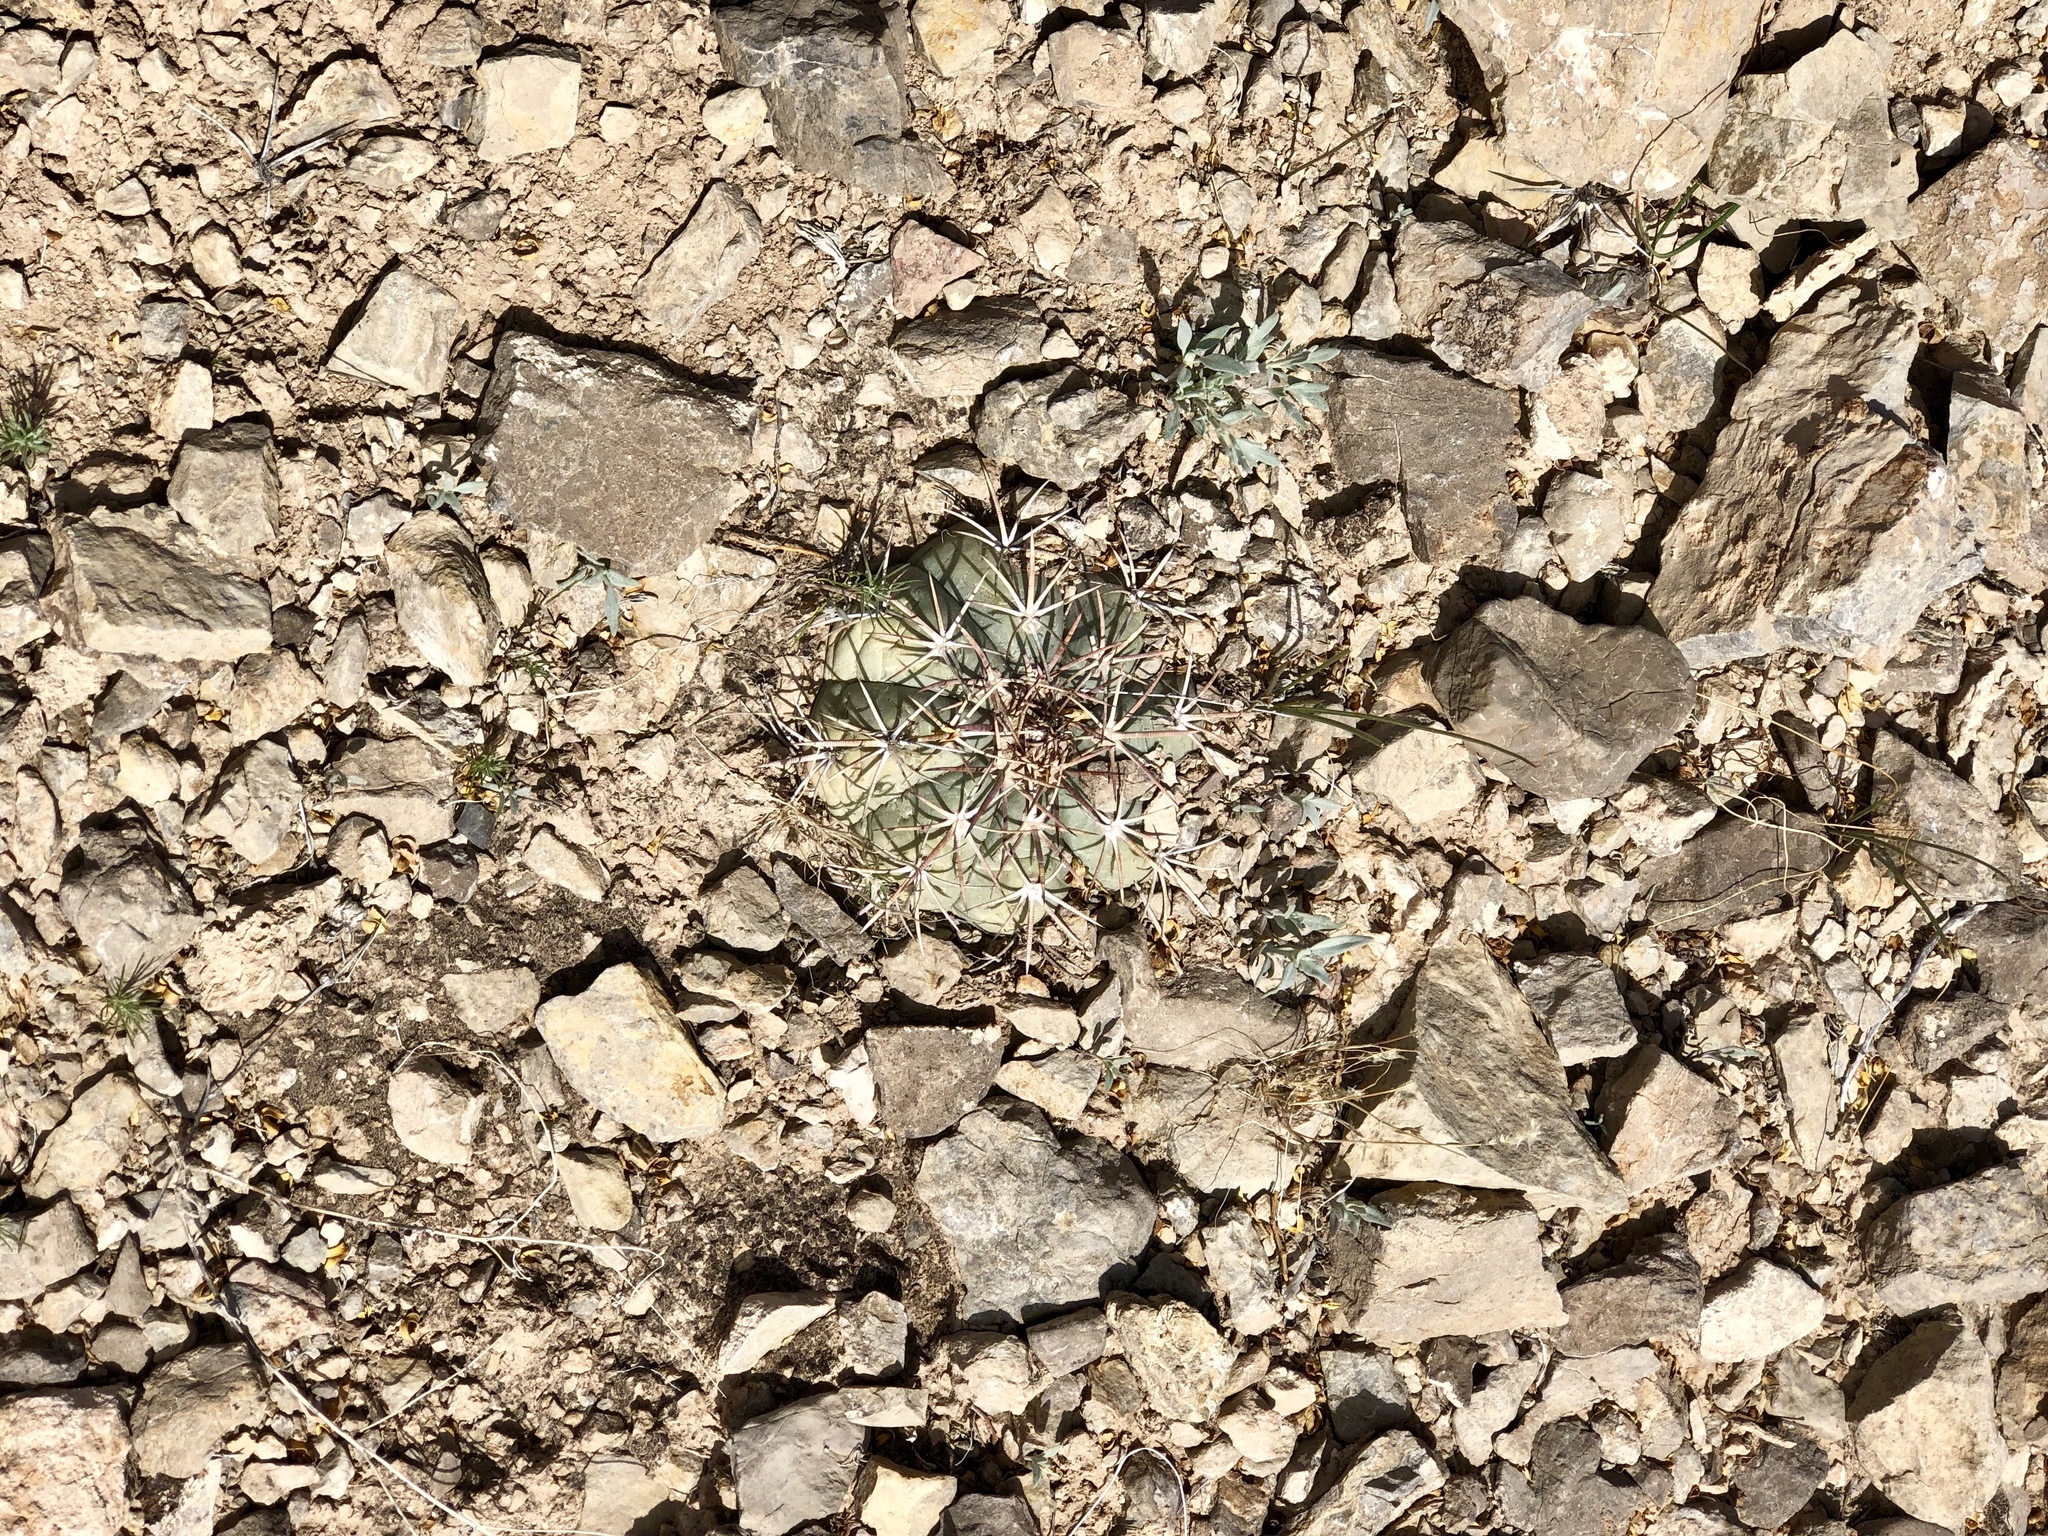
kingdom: Plantae
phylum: Tracheophyta
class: Magnoliopsida
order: Caryophyllales
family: Cactaceae
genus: Echinocactus
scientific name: Echinocactus horizonthalonius
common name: Devilshead
